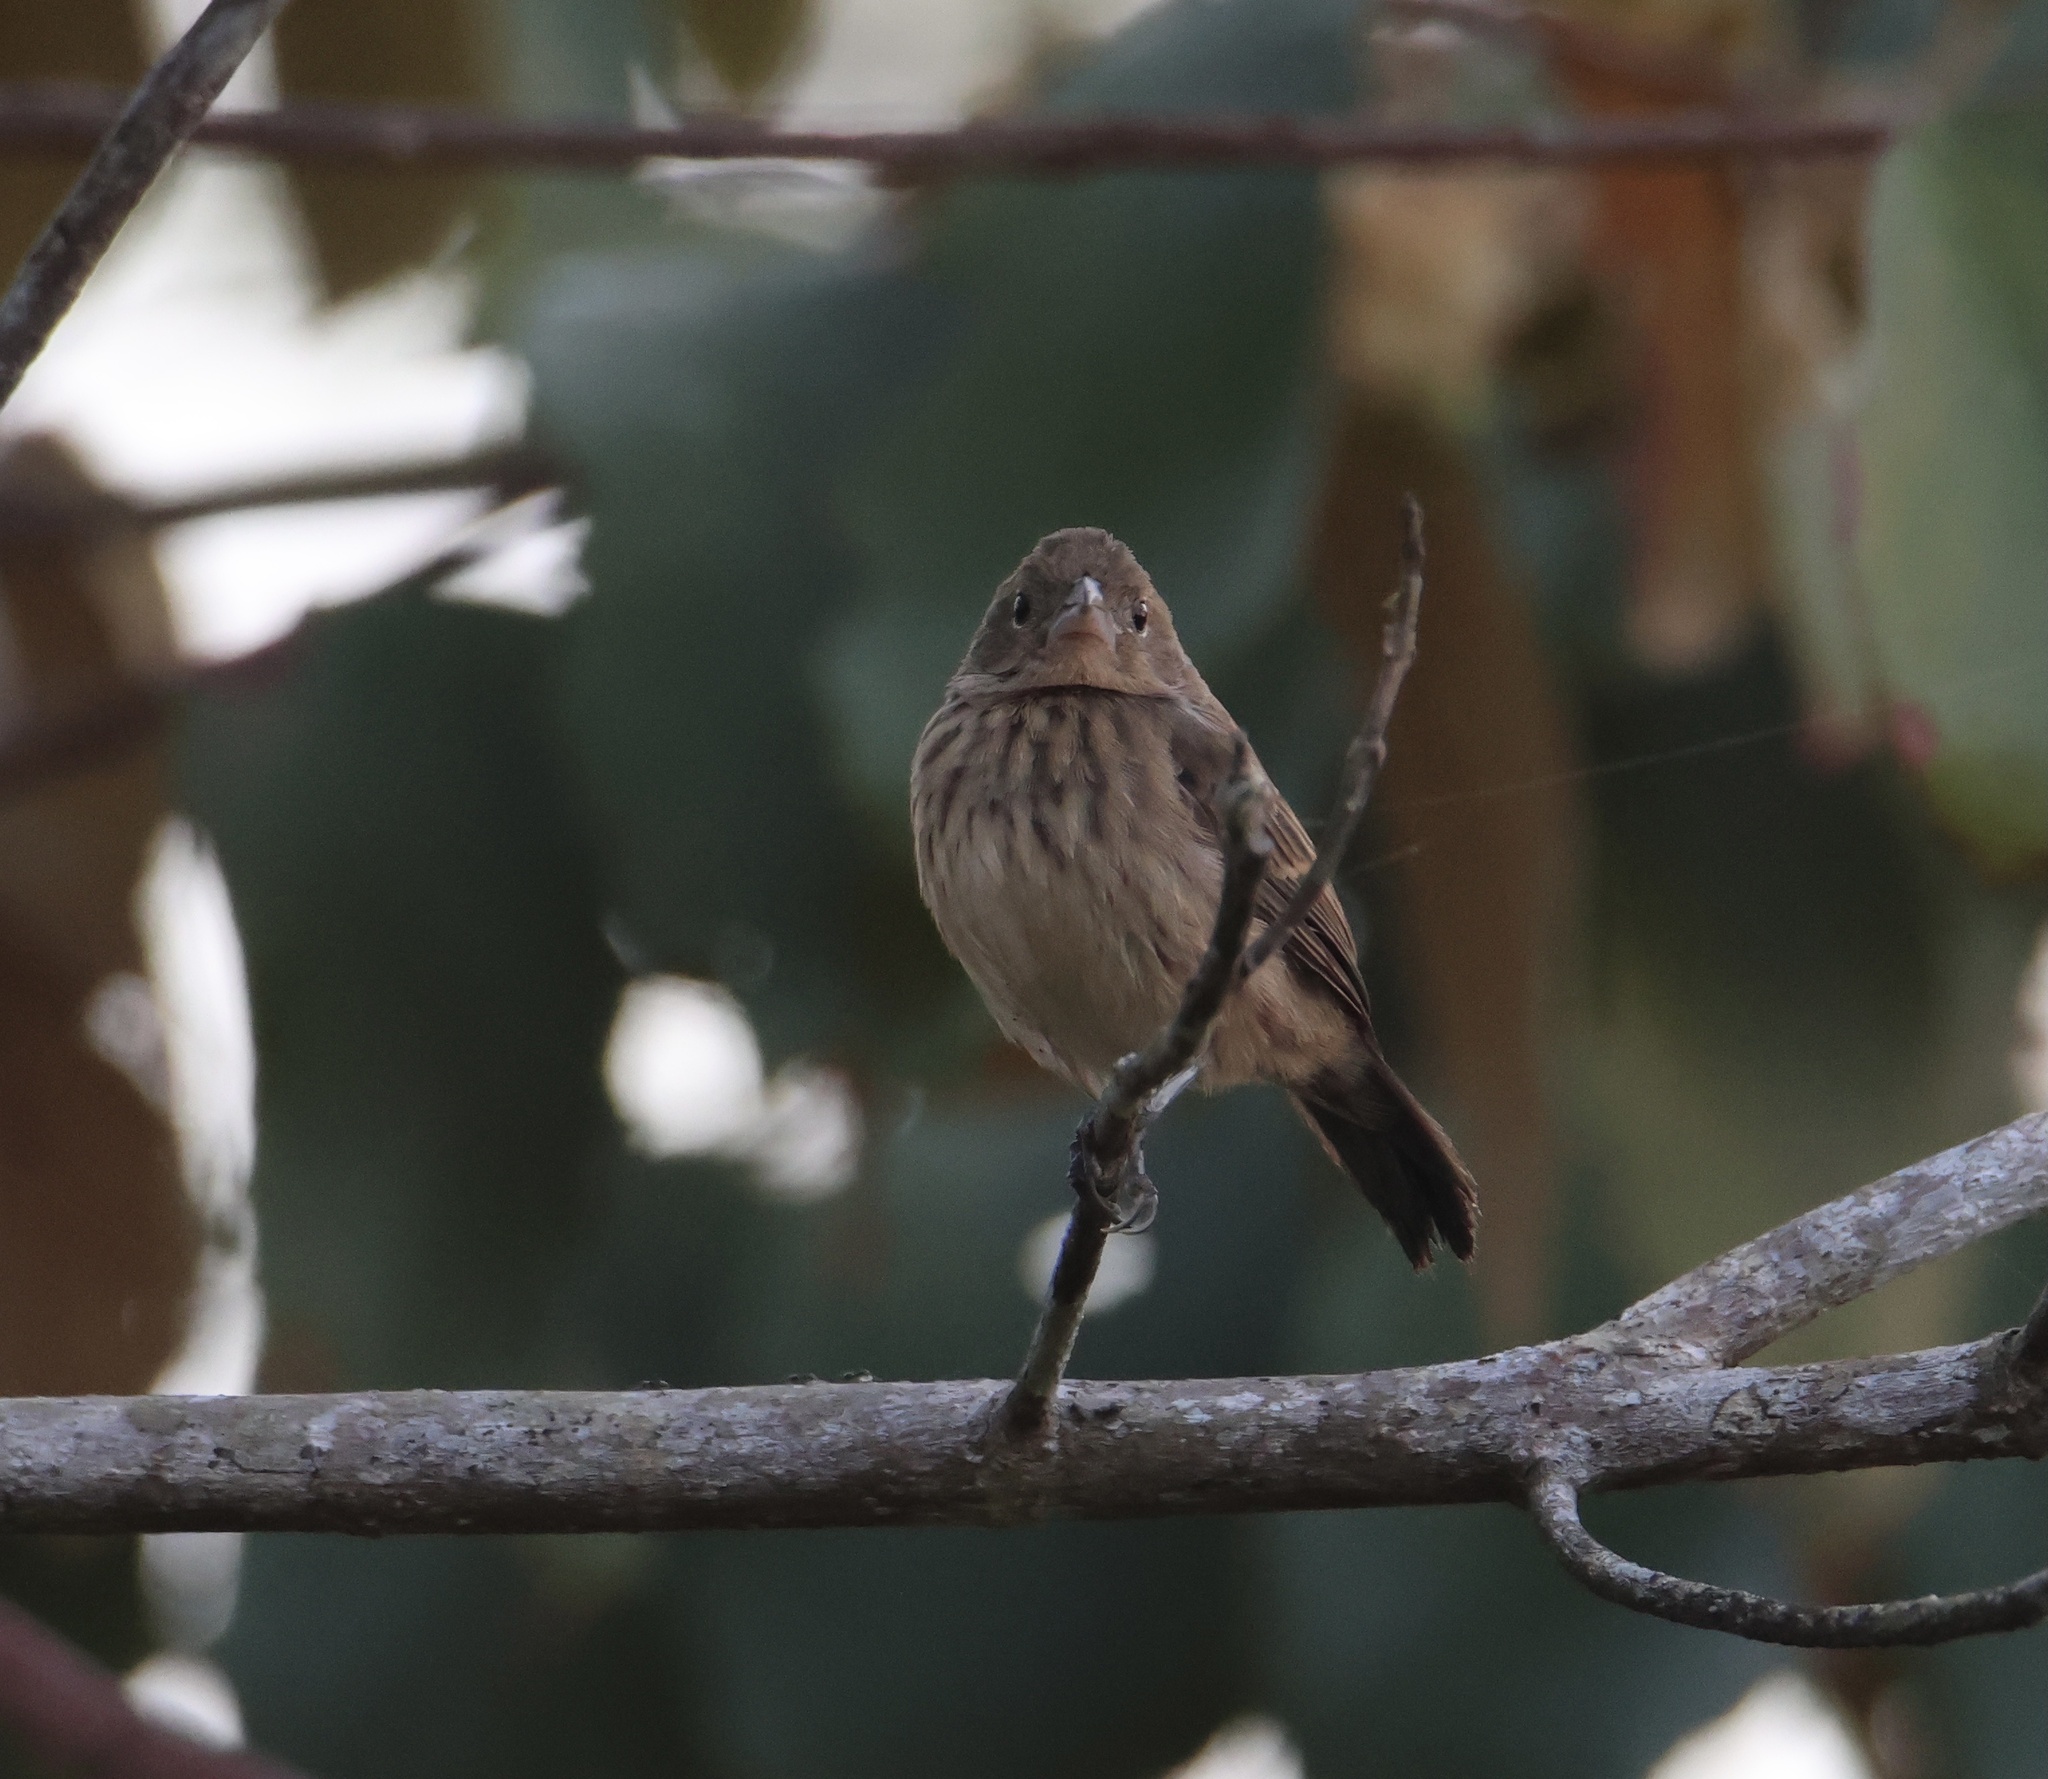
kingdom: Animalia
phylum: Chordata
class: Aves
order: Passeriformes
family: Thraupidae
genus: Volatinia
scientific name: Volatinia jacarina
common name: Blue-black grassquit
